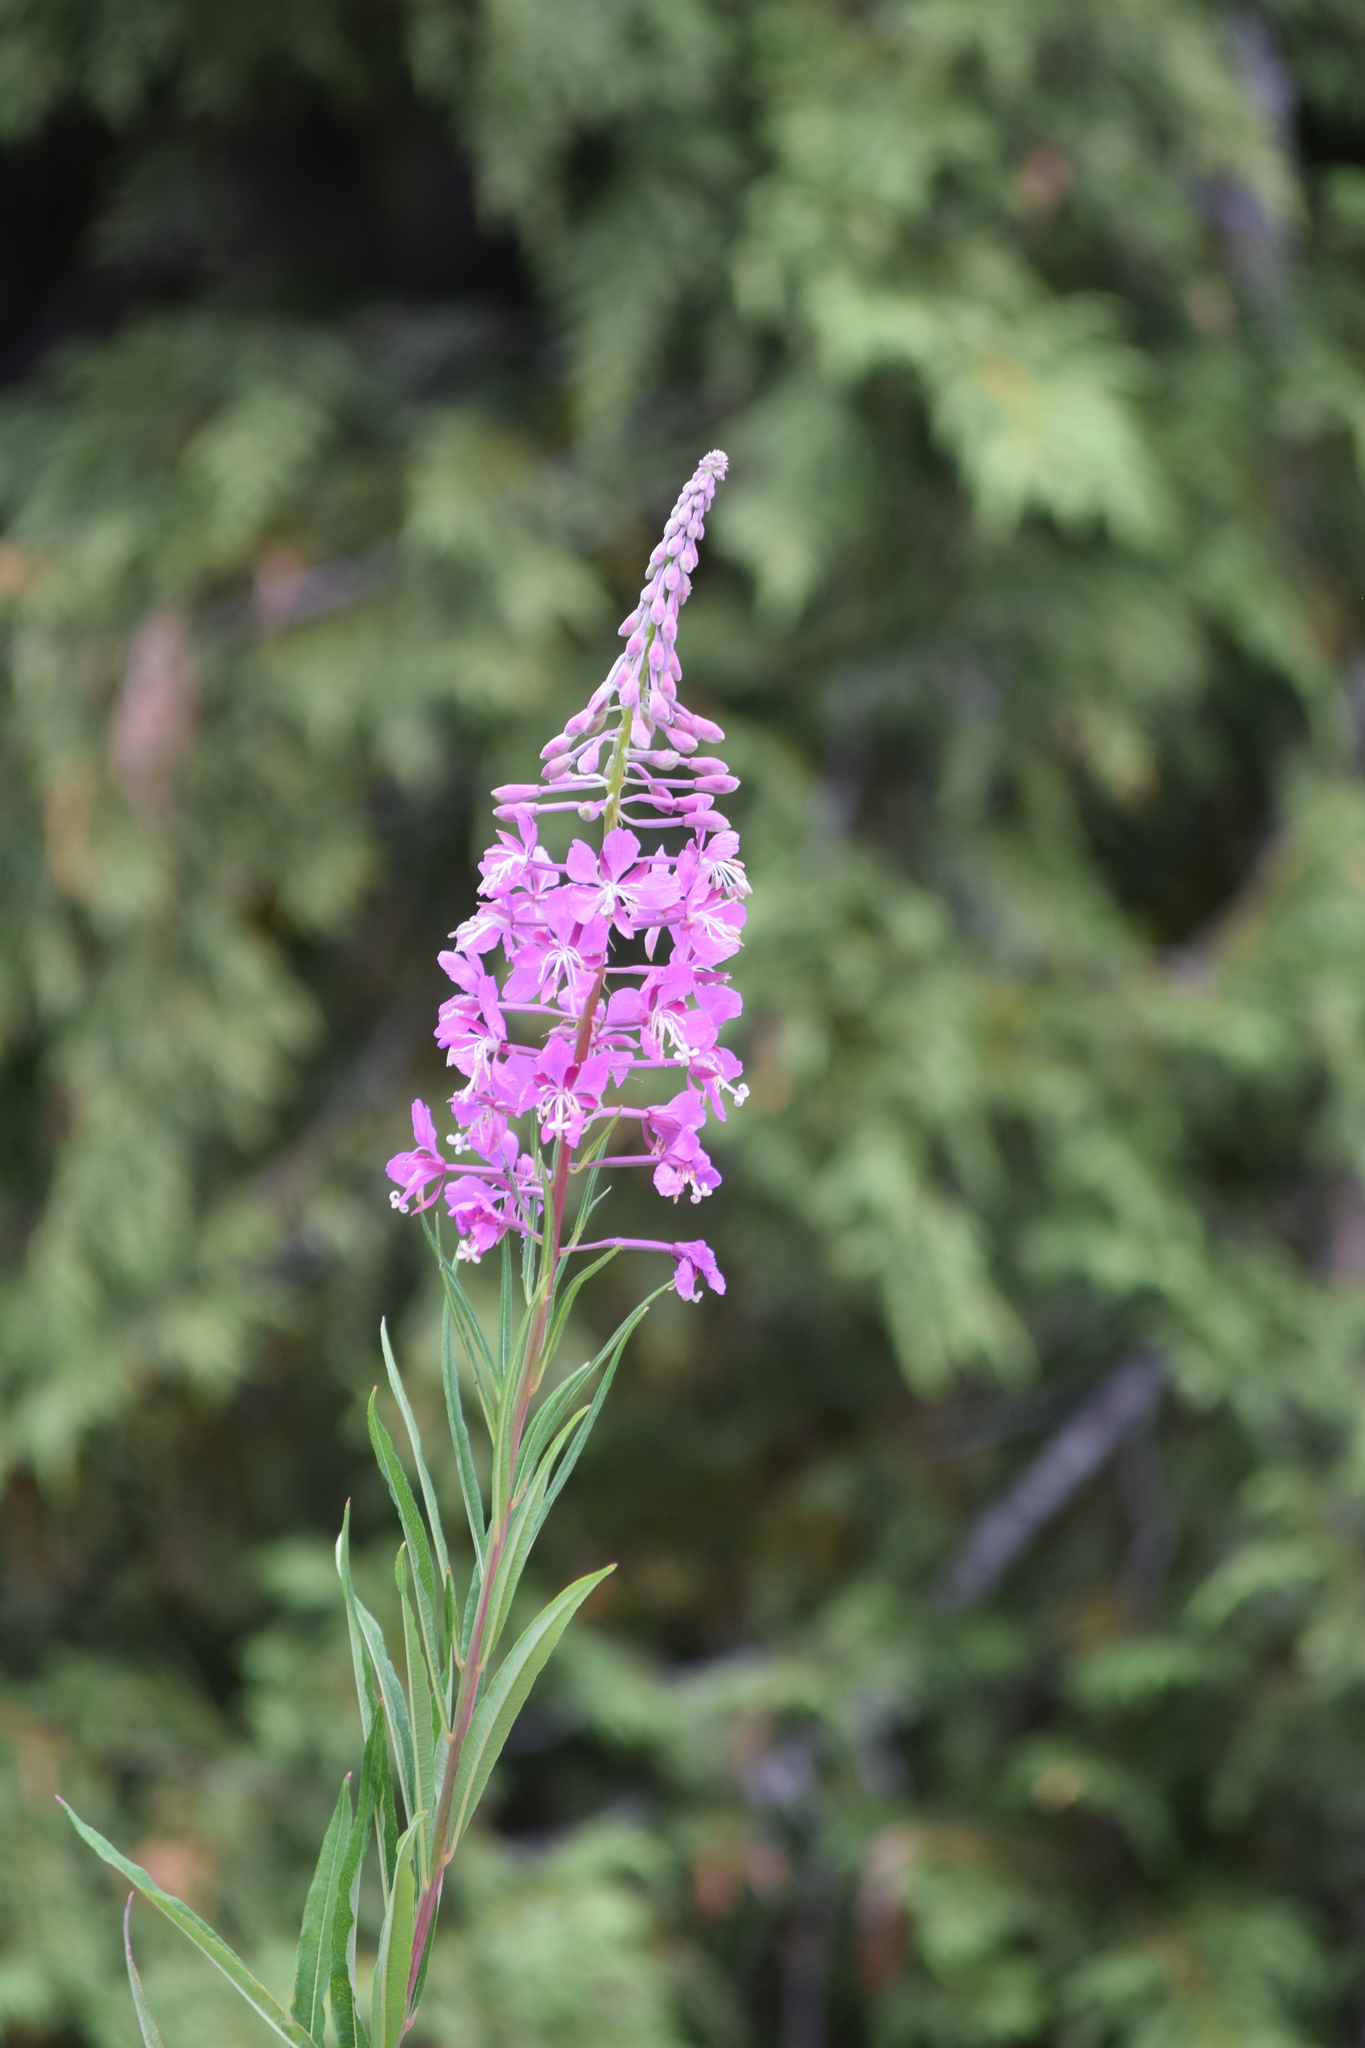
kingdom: Plantae
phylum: Tracheophyta
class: Magnoliopsida
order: Myrtales
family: Onagraceae
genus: Chamaenerion
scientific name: Chamaenerion angustifolium
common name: Fireweed
